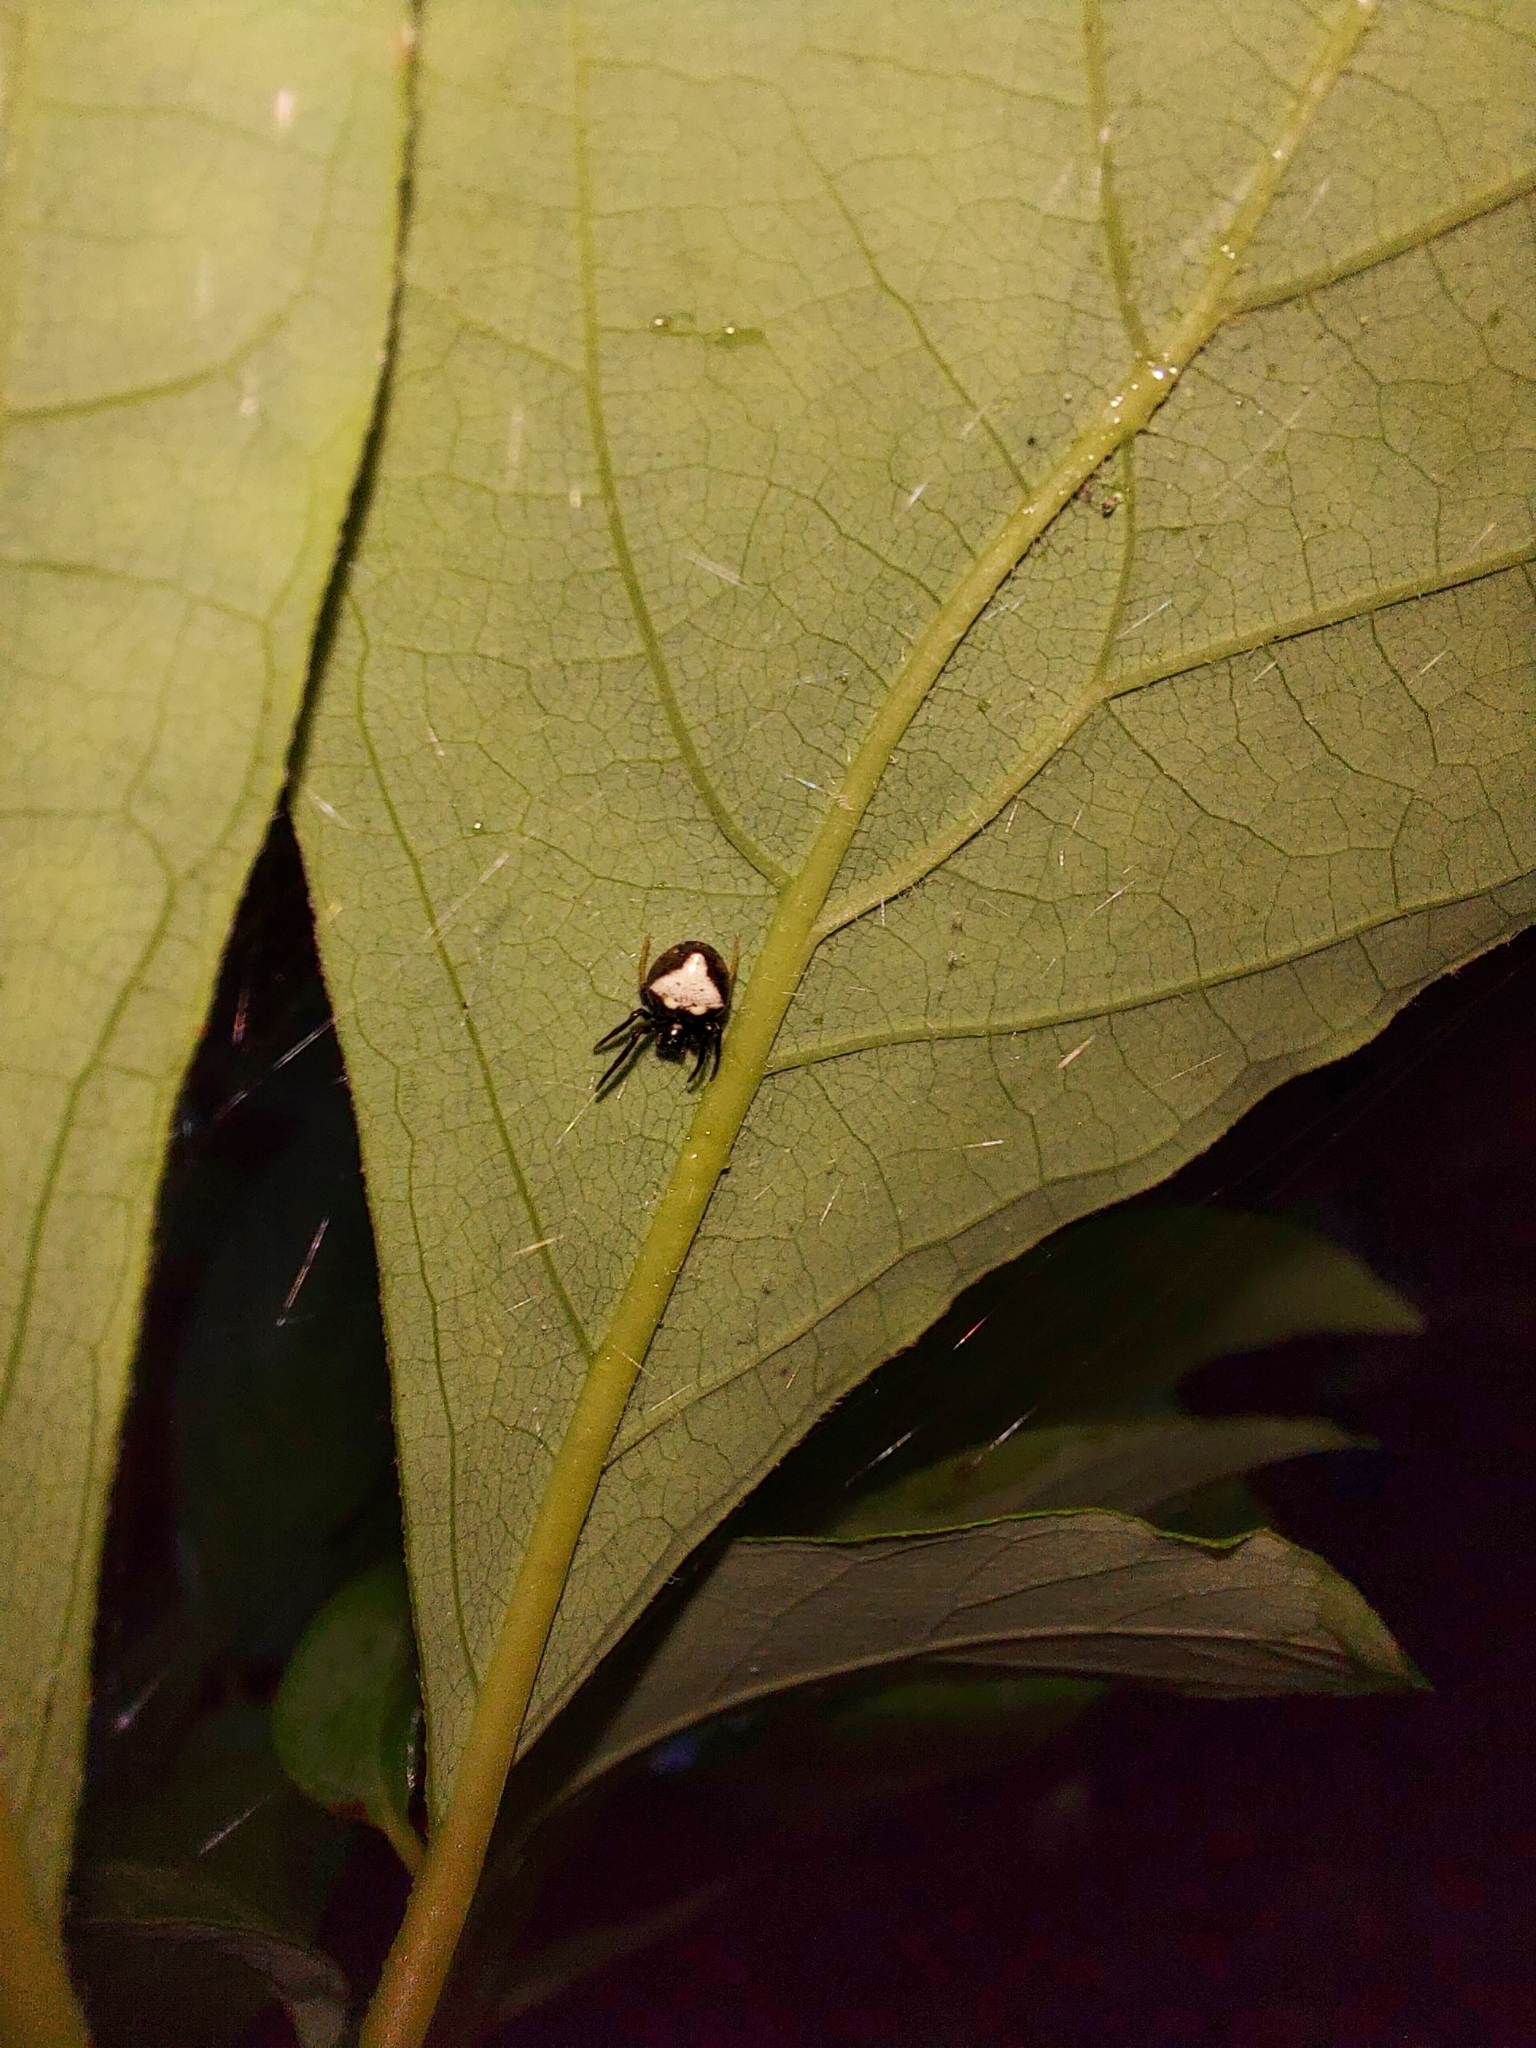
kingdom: Animalia
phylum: Arthropoda
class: Arachnida
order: Araneae
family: Araneidae
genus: Verrucosa
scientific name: Verrucosa arenata
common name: Orb weavers
